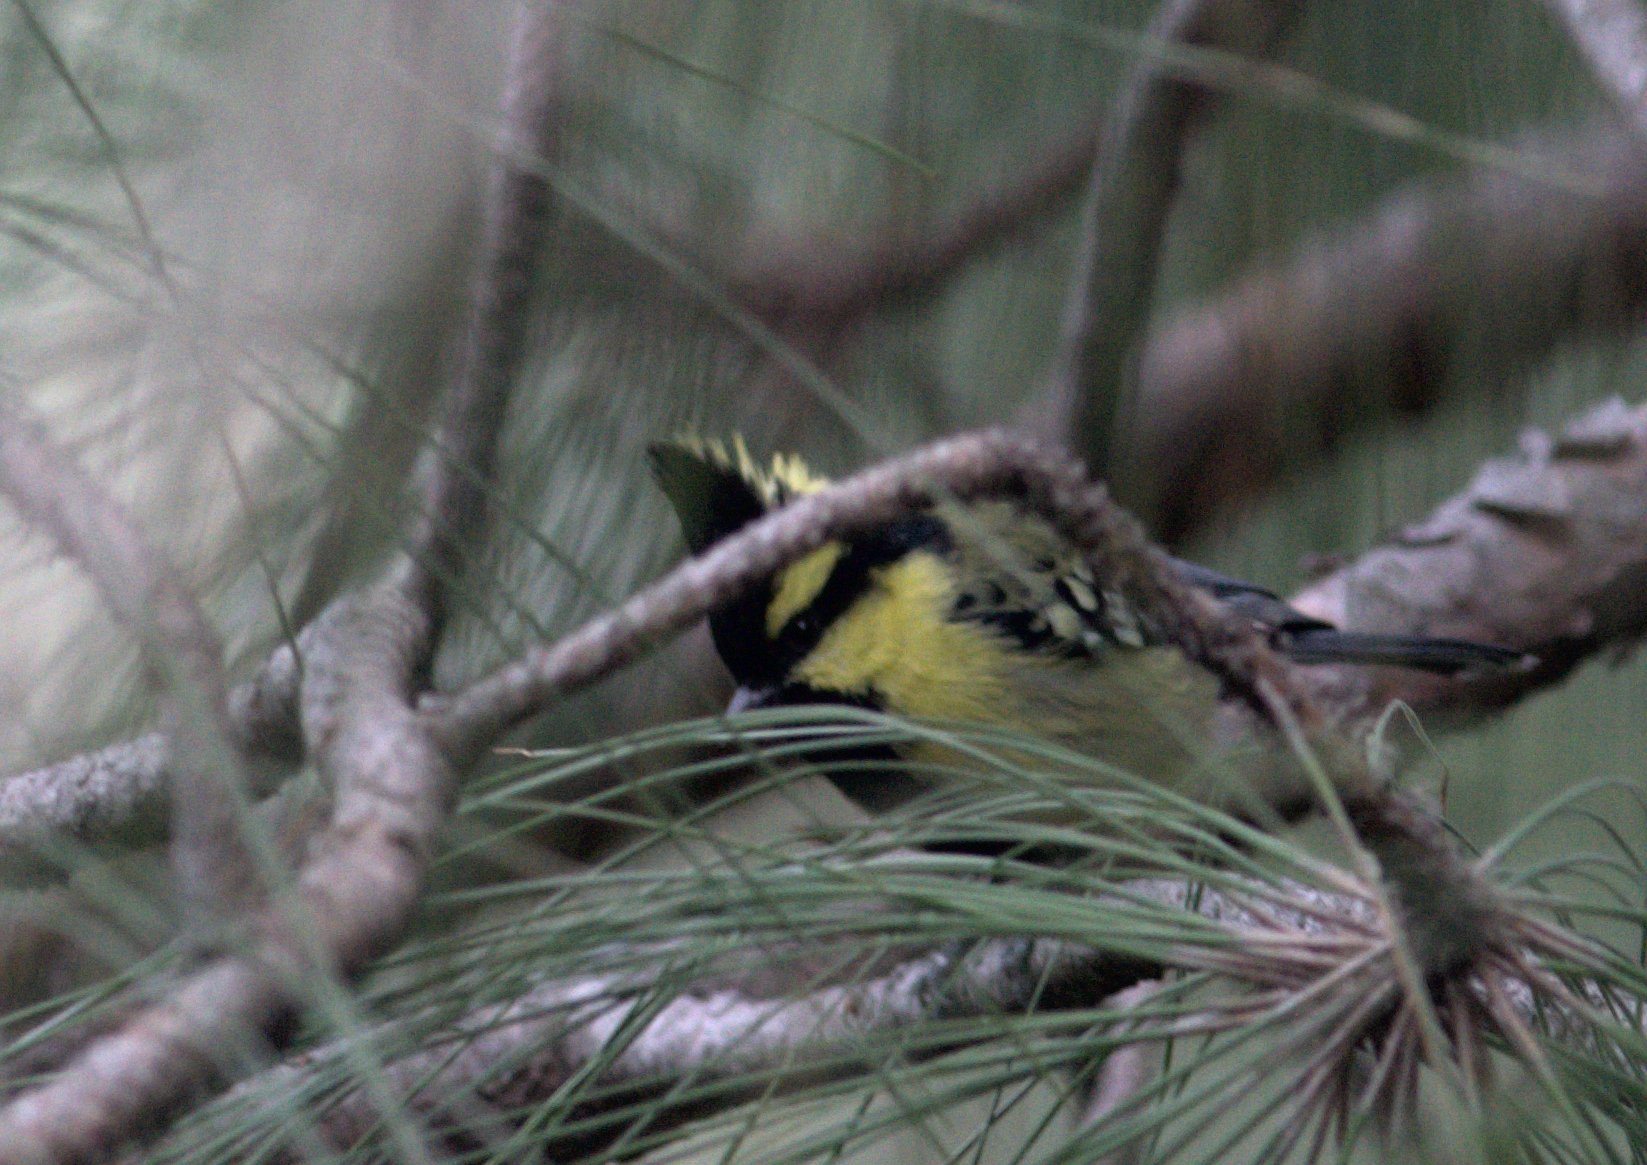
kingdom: Animalia
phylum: Chordata
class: Aves
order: Passeriformes
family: Paridae
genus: Parus
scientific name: Parus xanthogenys
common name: Black-lored tit
